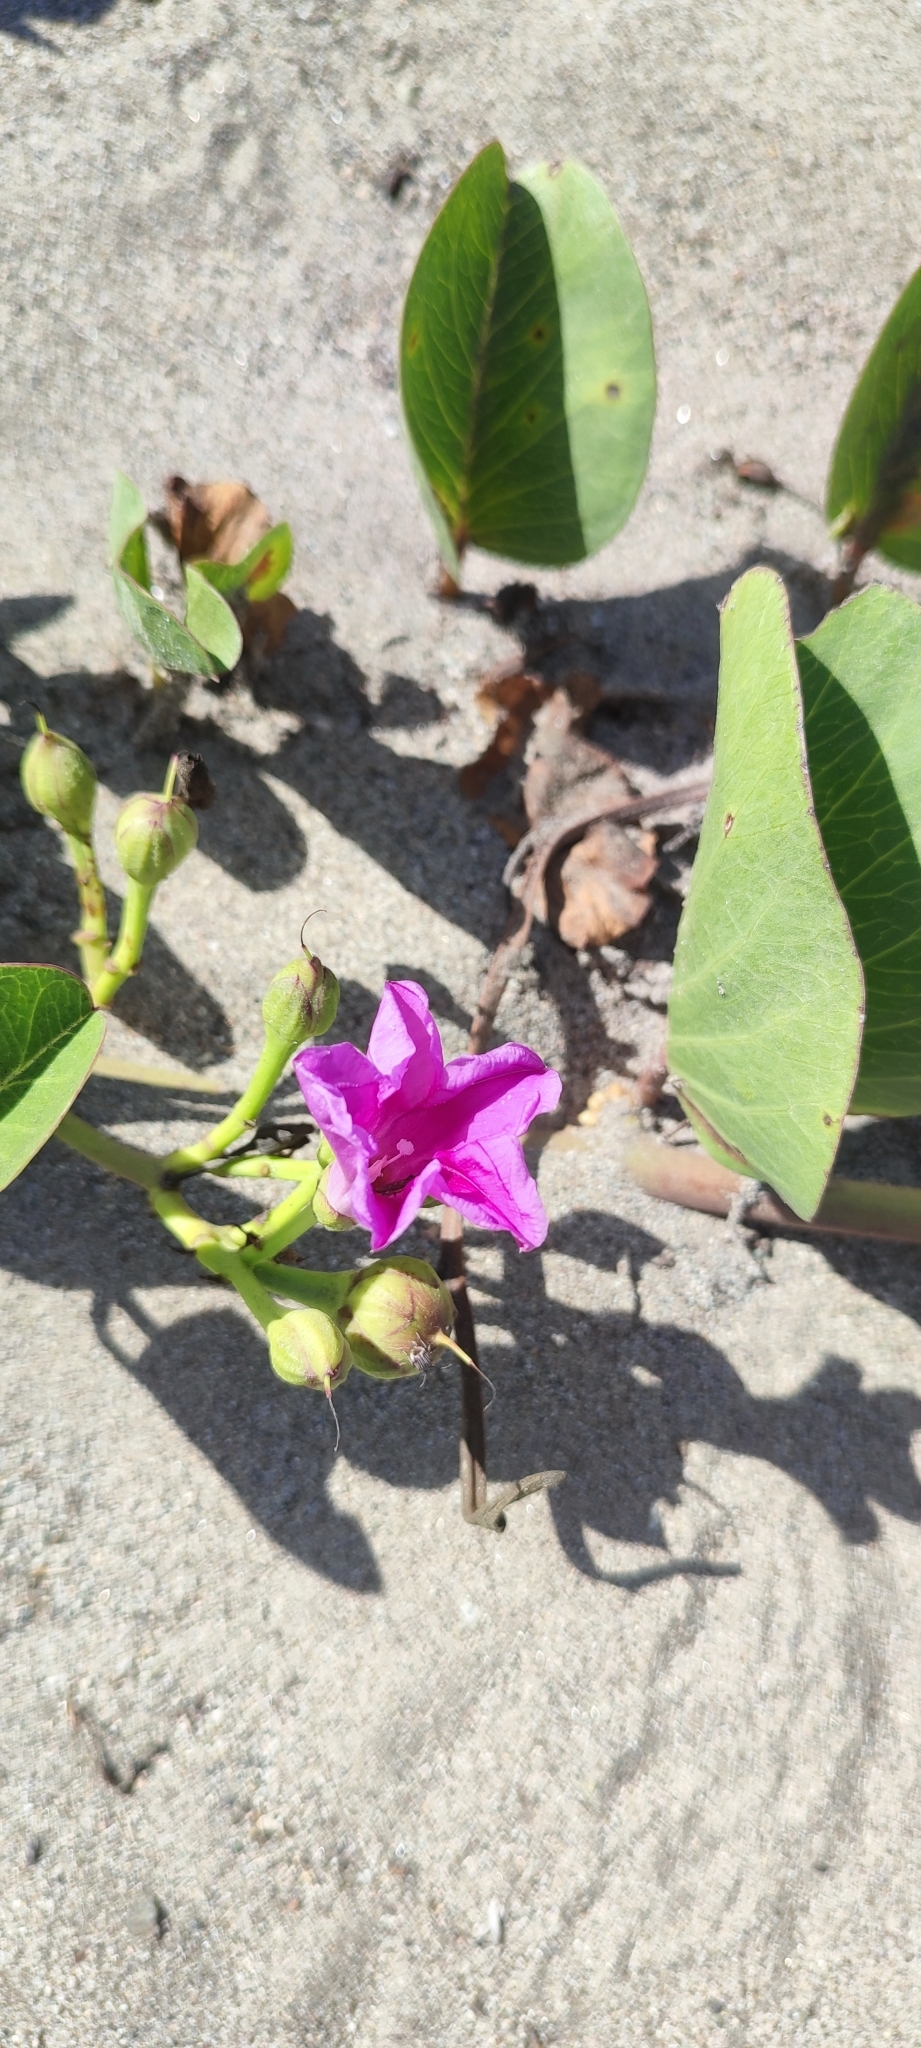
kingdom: Plantae
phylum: Tracheophyta
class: Magnoliopsida
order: Solanales
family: Convolvulaceae
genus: Ipomoea
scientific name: Ipomoea pes-caprae
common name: Beach morning glory
